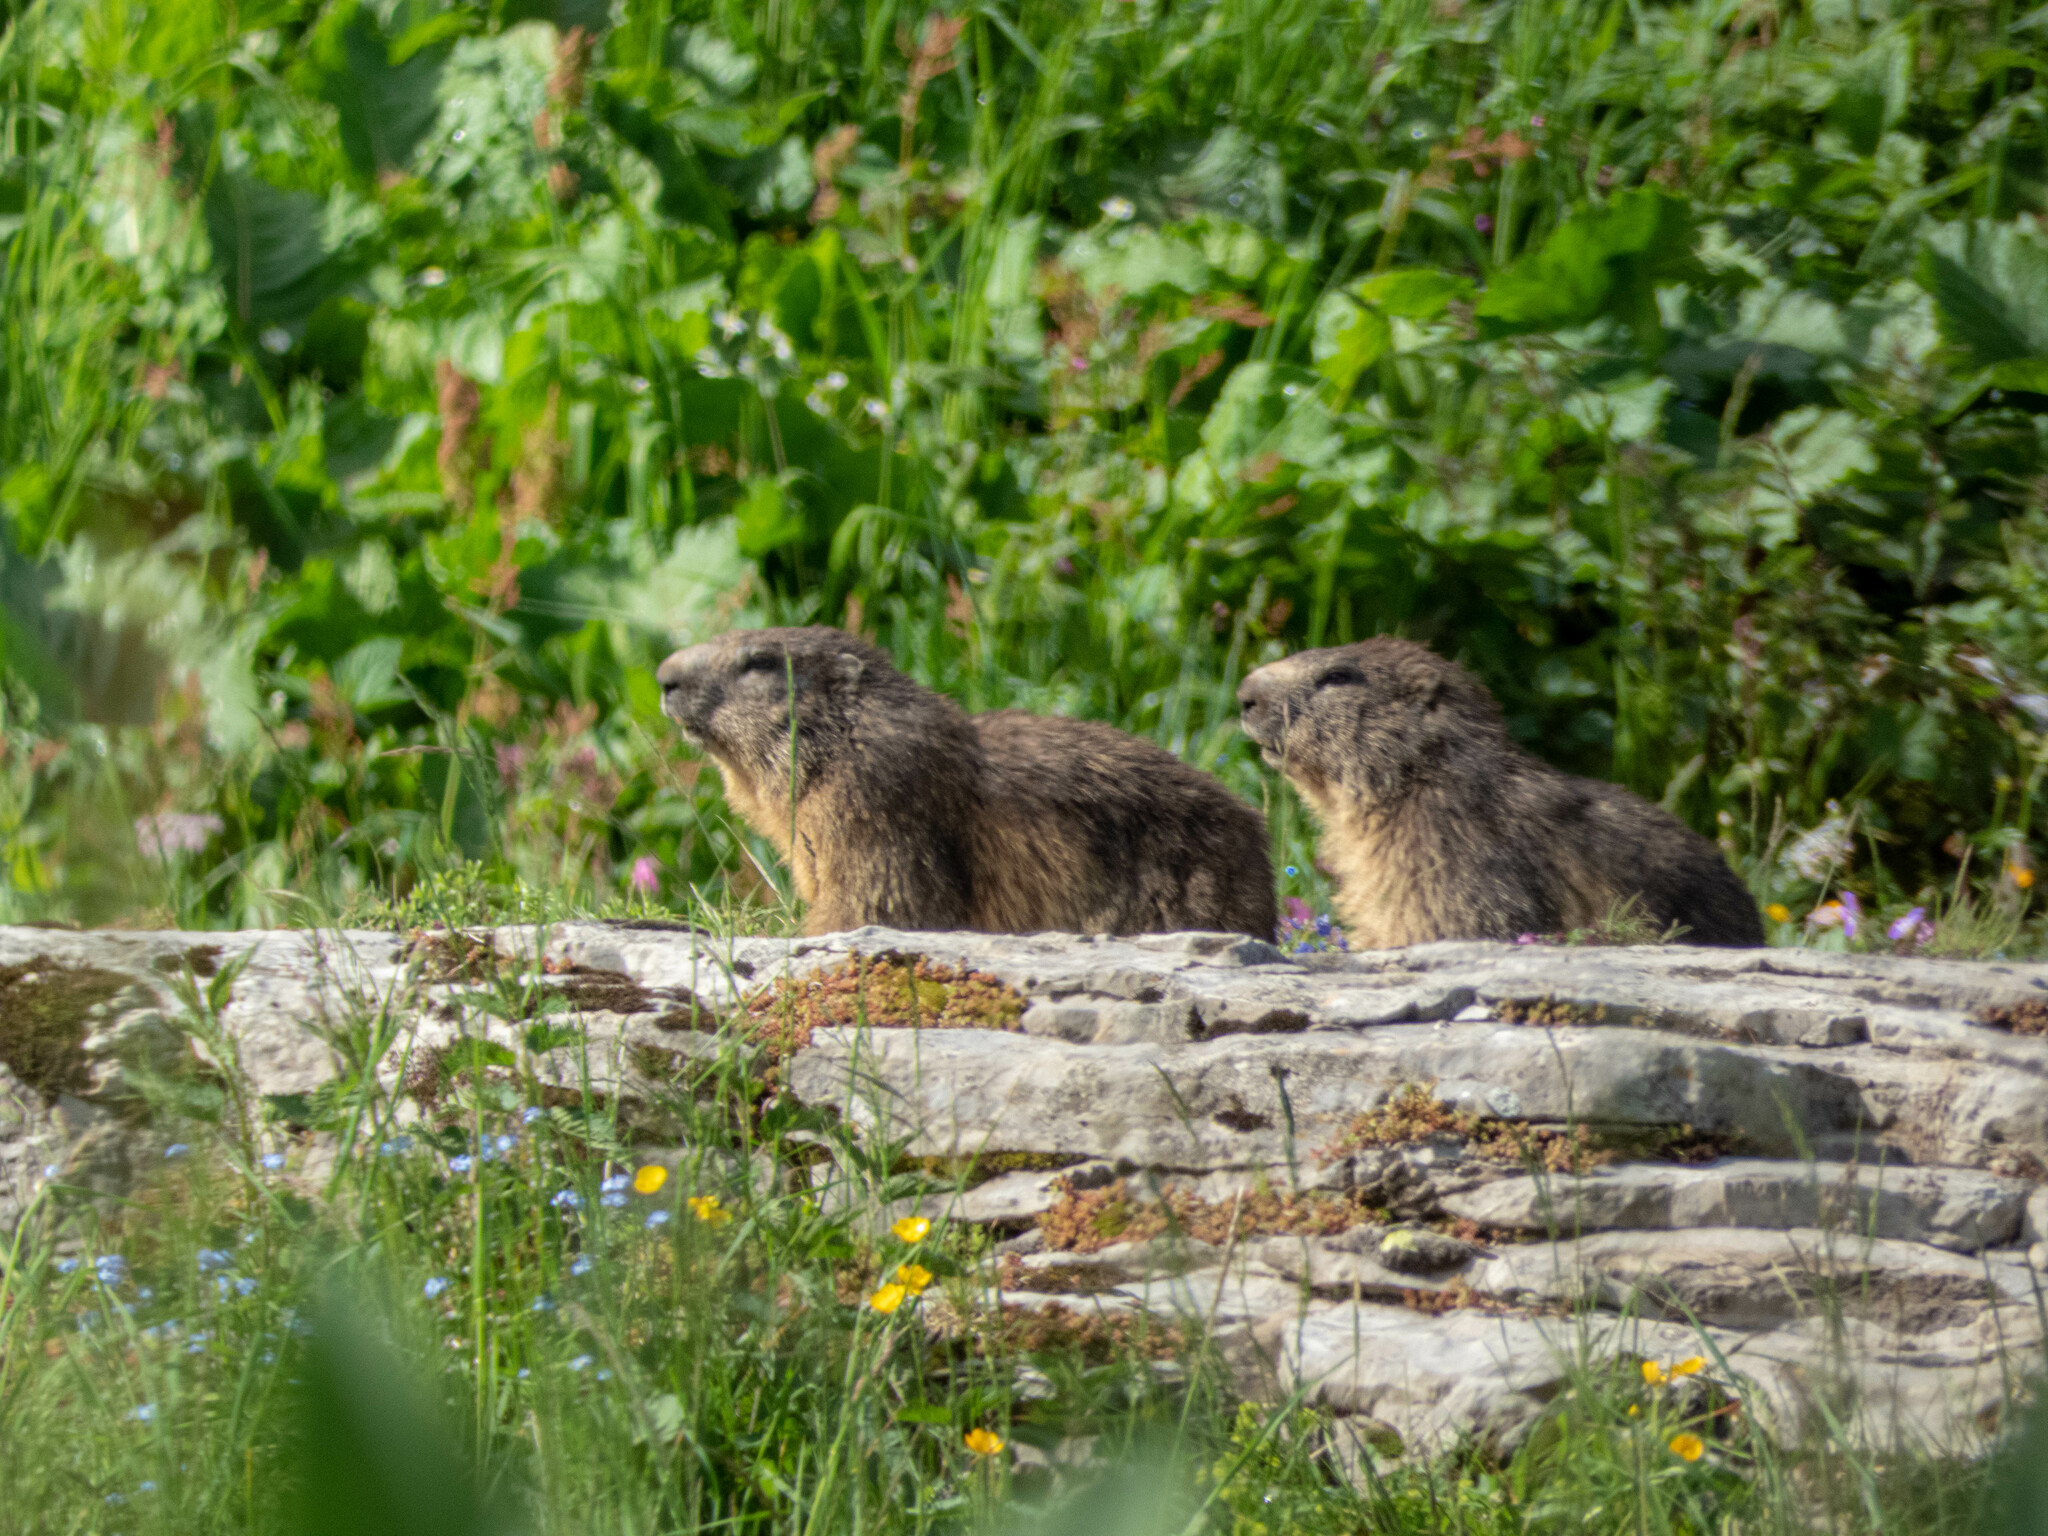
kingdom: Animalia
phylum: Chordata
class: Mammalia
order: Rodentia
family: Sciuridae
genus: Marmota
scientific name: Marmota marmota
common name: Alpine marmot
